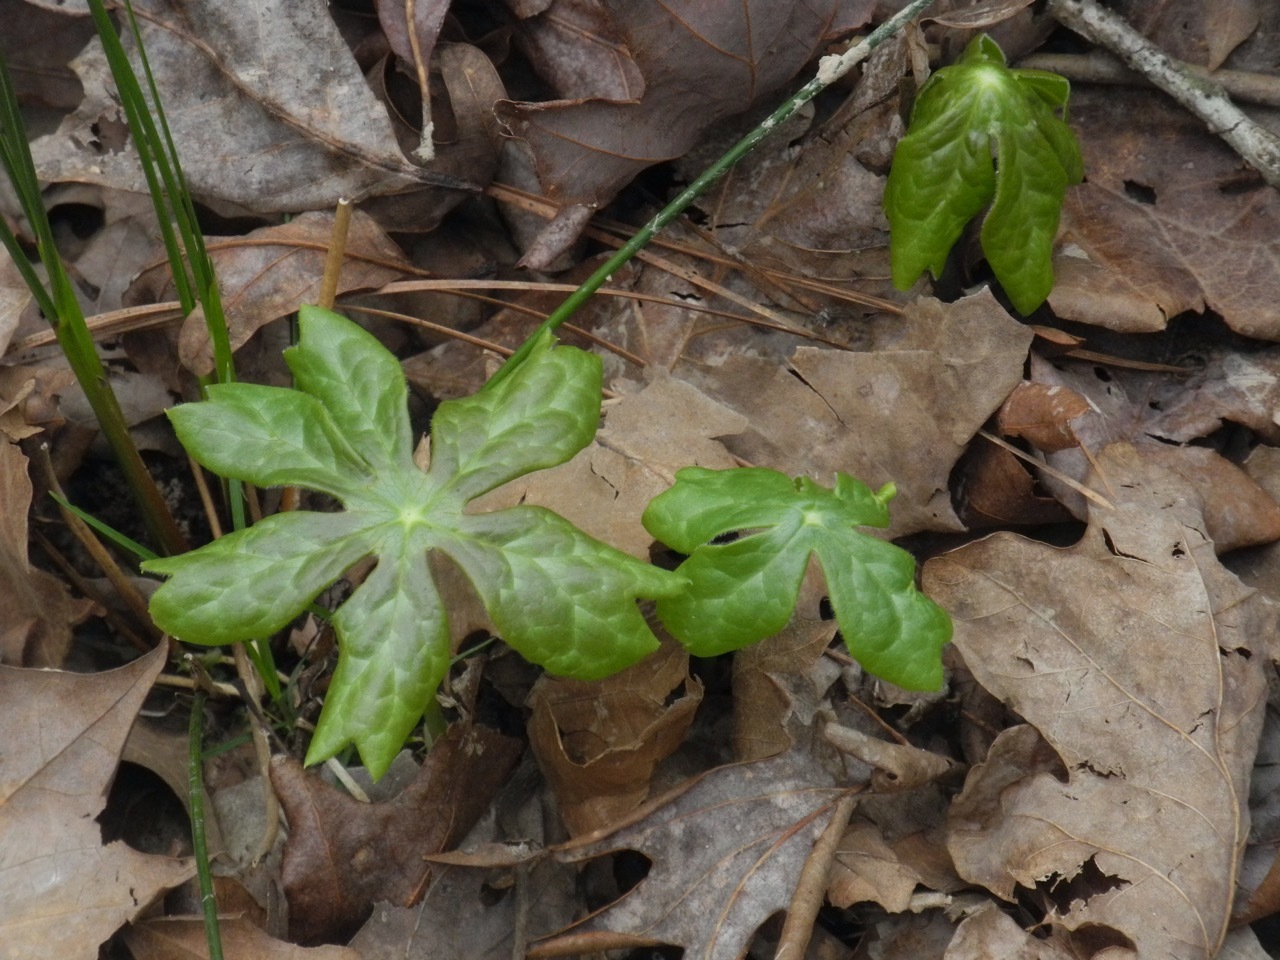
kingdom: Plantae
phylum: Tracheophyta
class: Magnoliopsida
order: Ranunculales
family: Berberidaceae
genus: Podophyllum
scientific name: Podophyllum peltatum
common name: Wild mandrake
